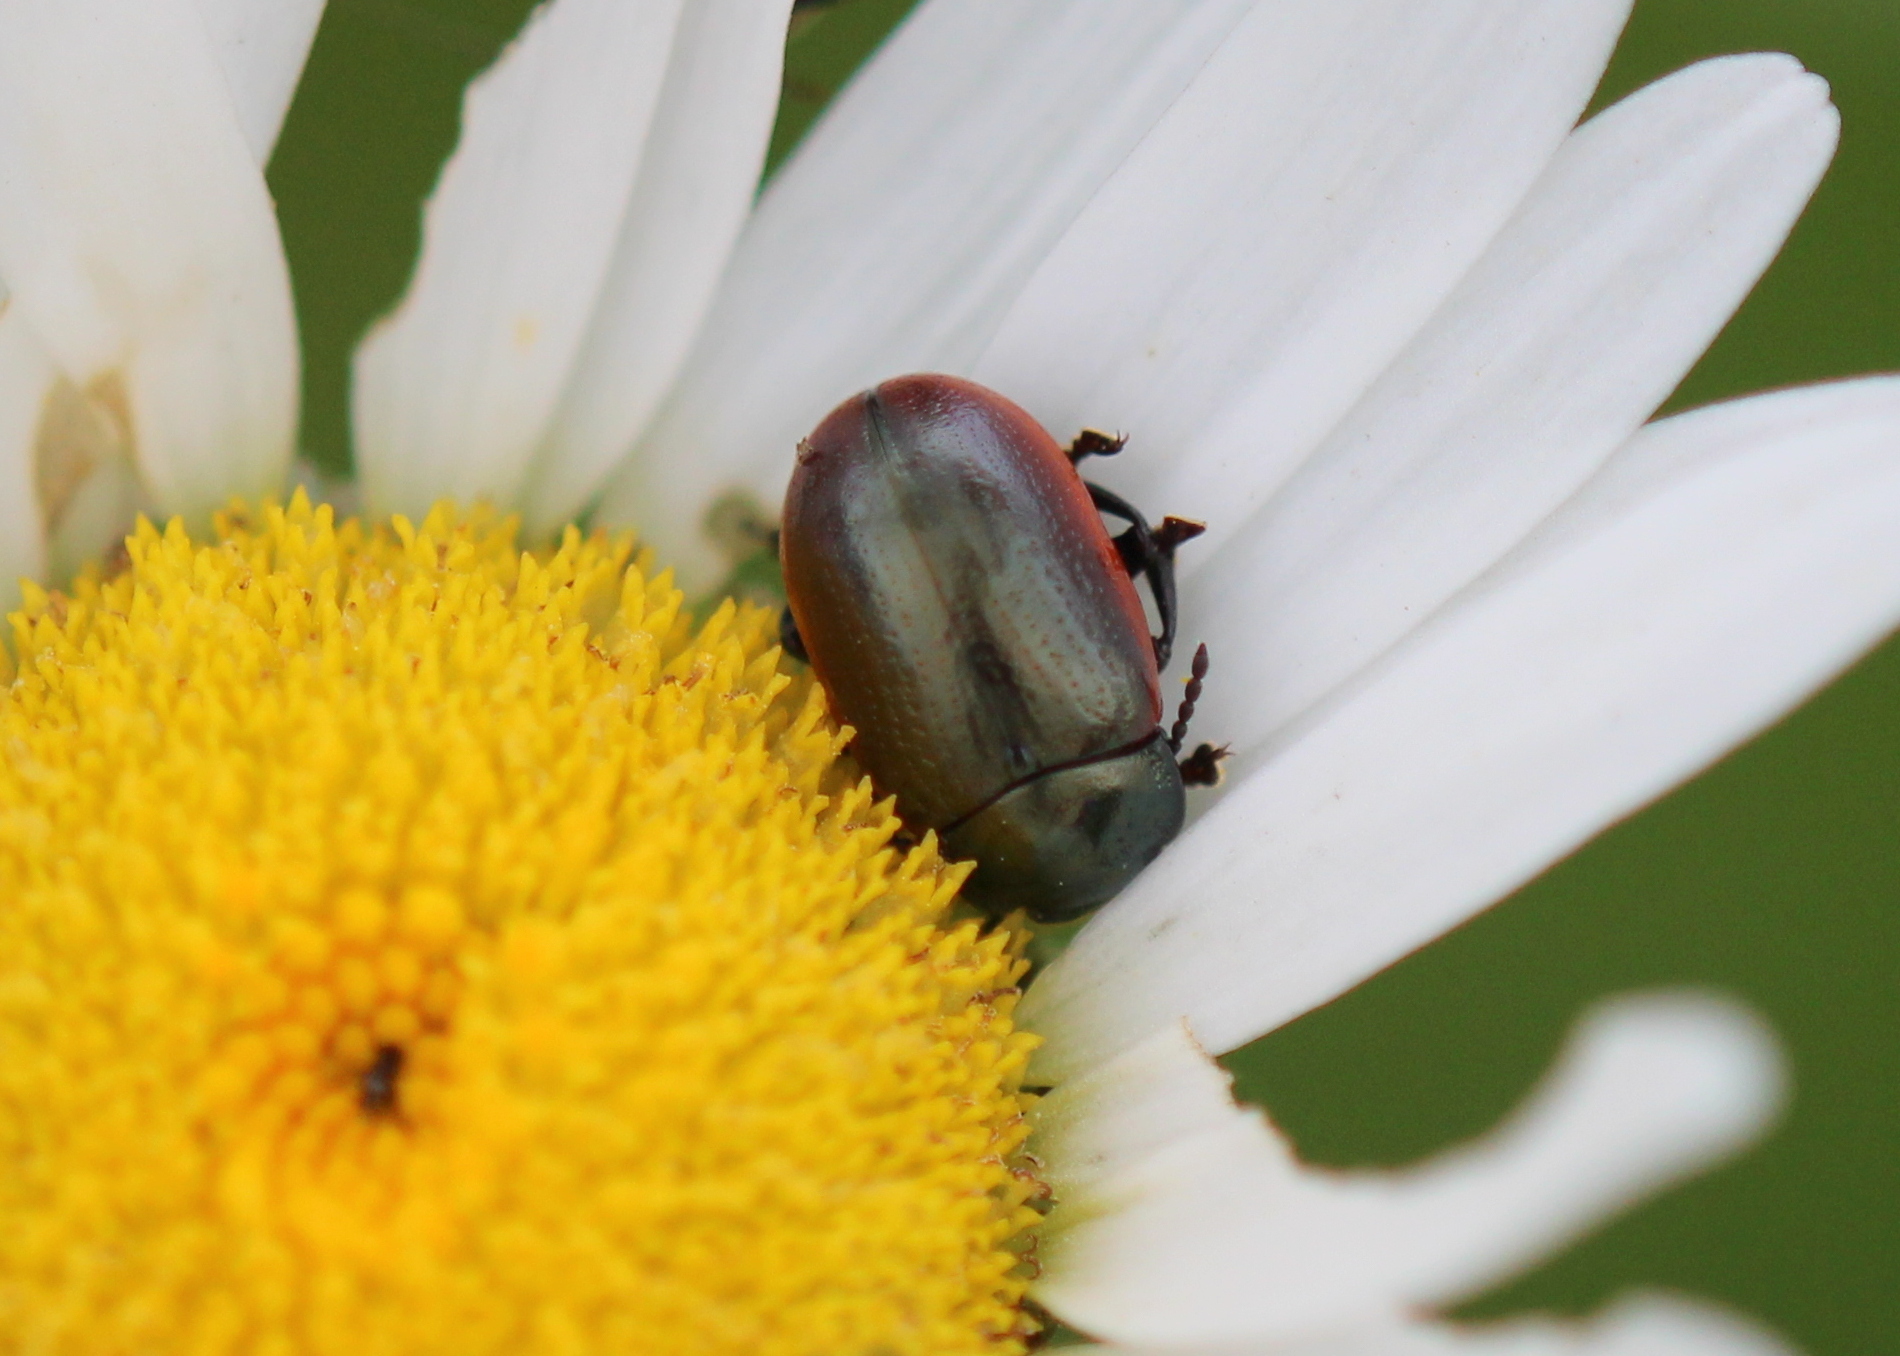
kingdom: Animalia
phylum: Arthropoda
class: Insecta
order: Coleoptera
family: Chrysomelidae
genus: Chrysolina
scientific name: Chrysolina marginata
